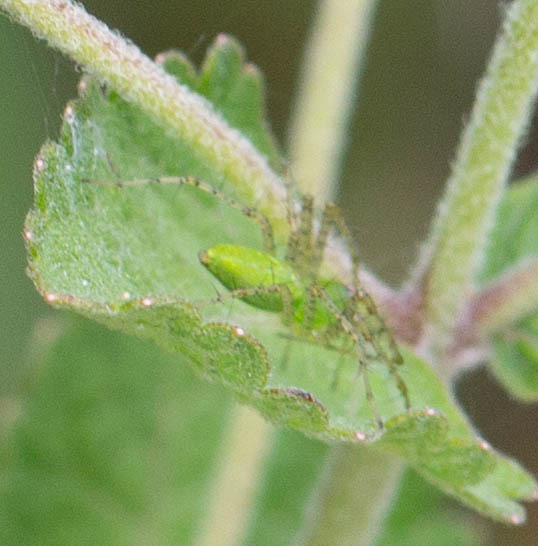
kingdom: Animalia
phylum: Arthropoda
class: Arachnida
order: Araneae
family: Oxyopidae
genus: Peucetia
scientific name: Peucetia viridans
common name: Lynx spiders
